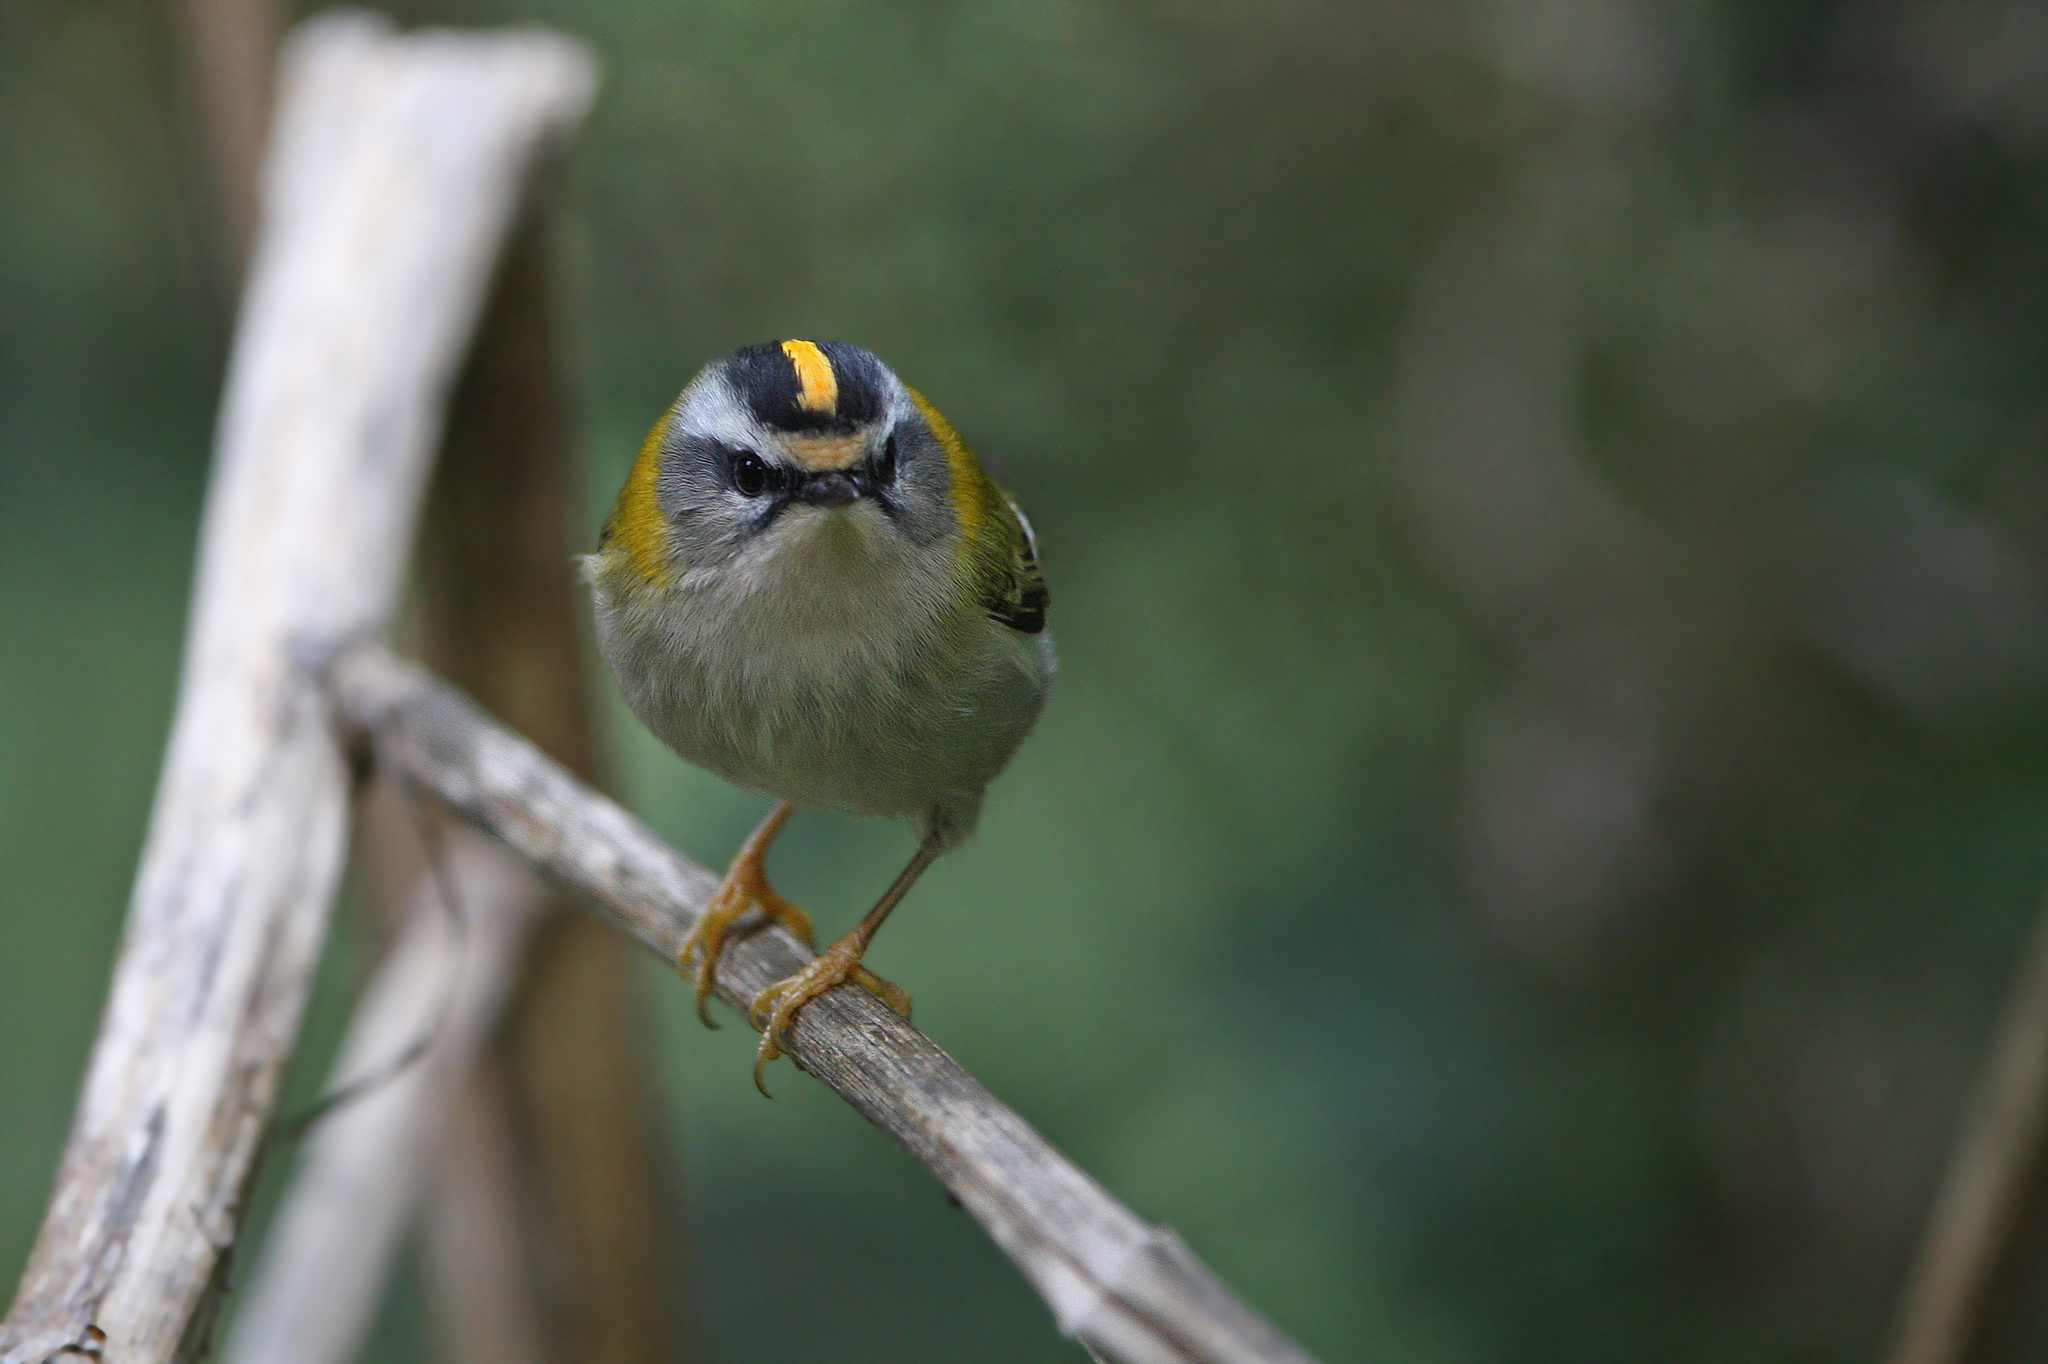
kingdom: Animalia
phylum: Chordata
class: Aves
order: Passeriformes
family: Regulidae
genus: Regulus
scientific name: Regulus ignicapilla
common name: Firecrest
